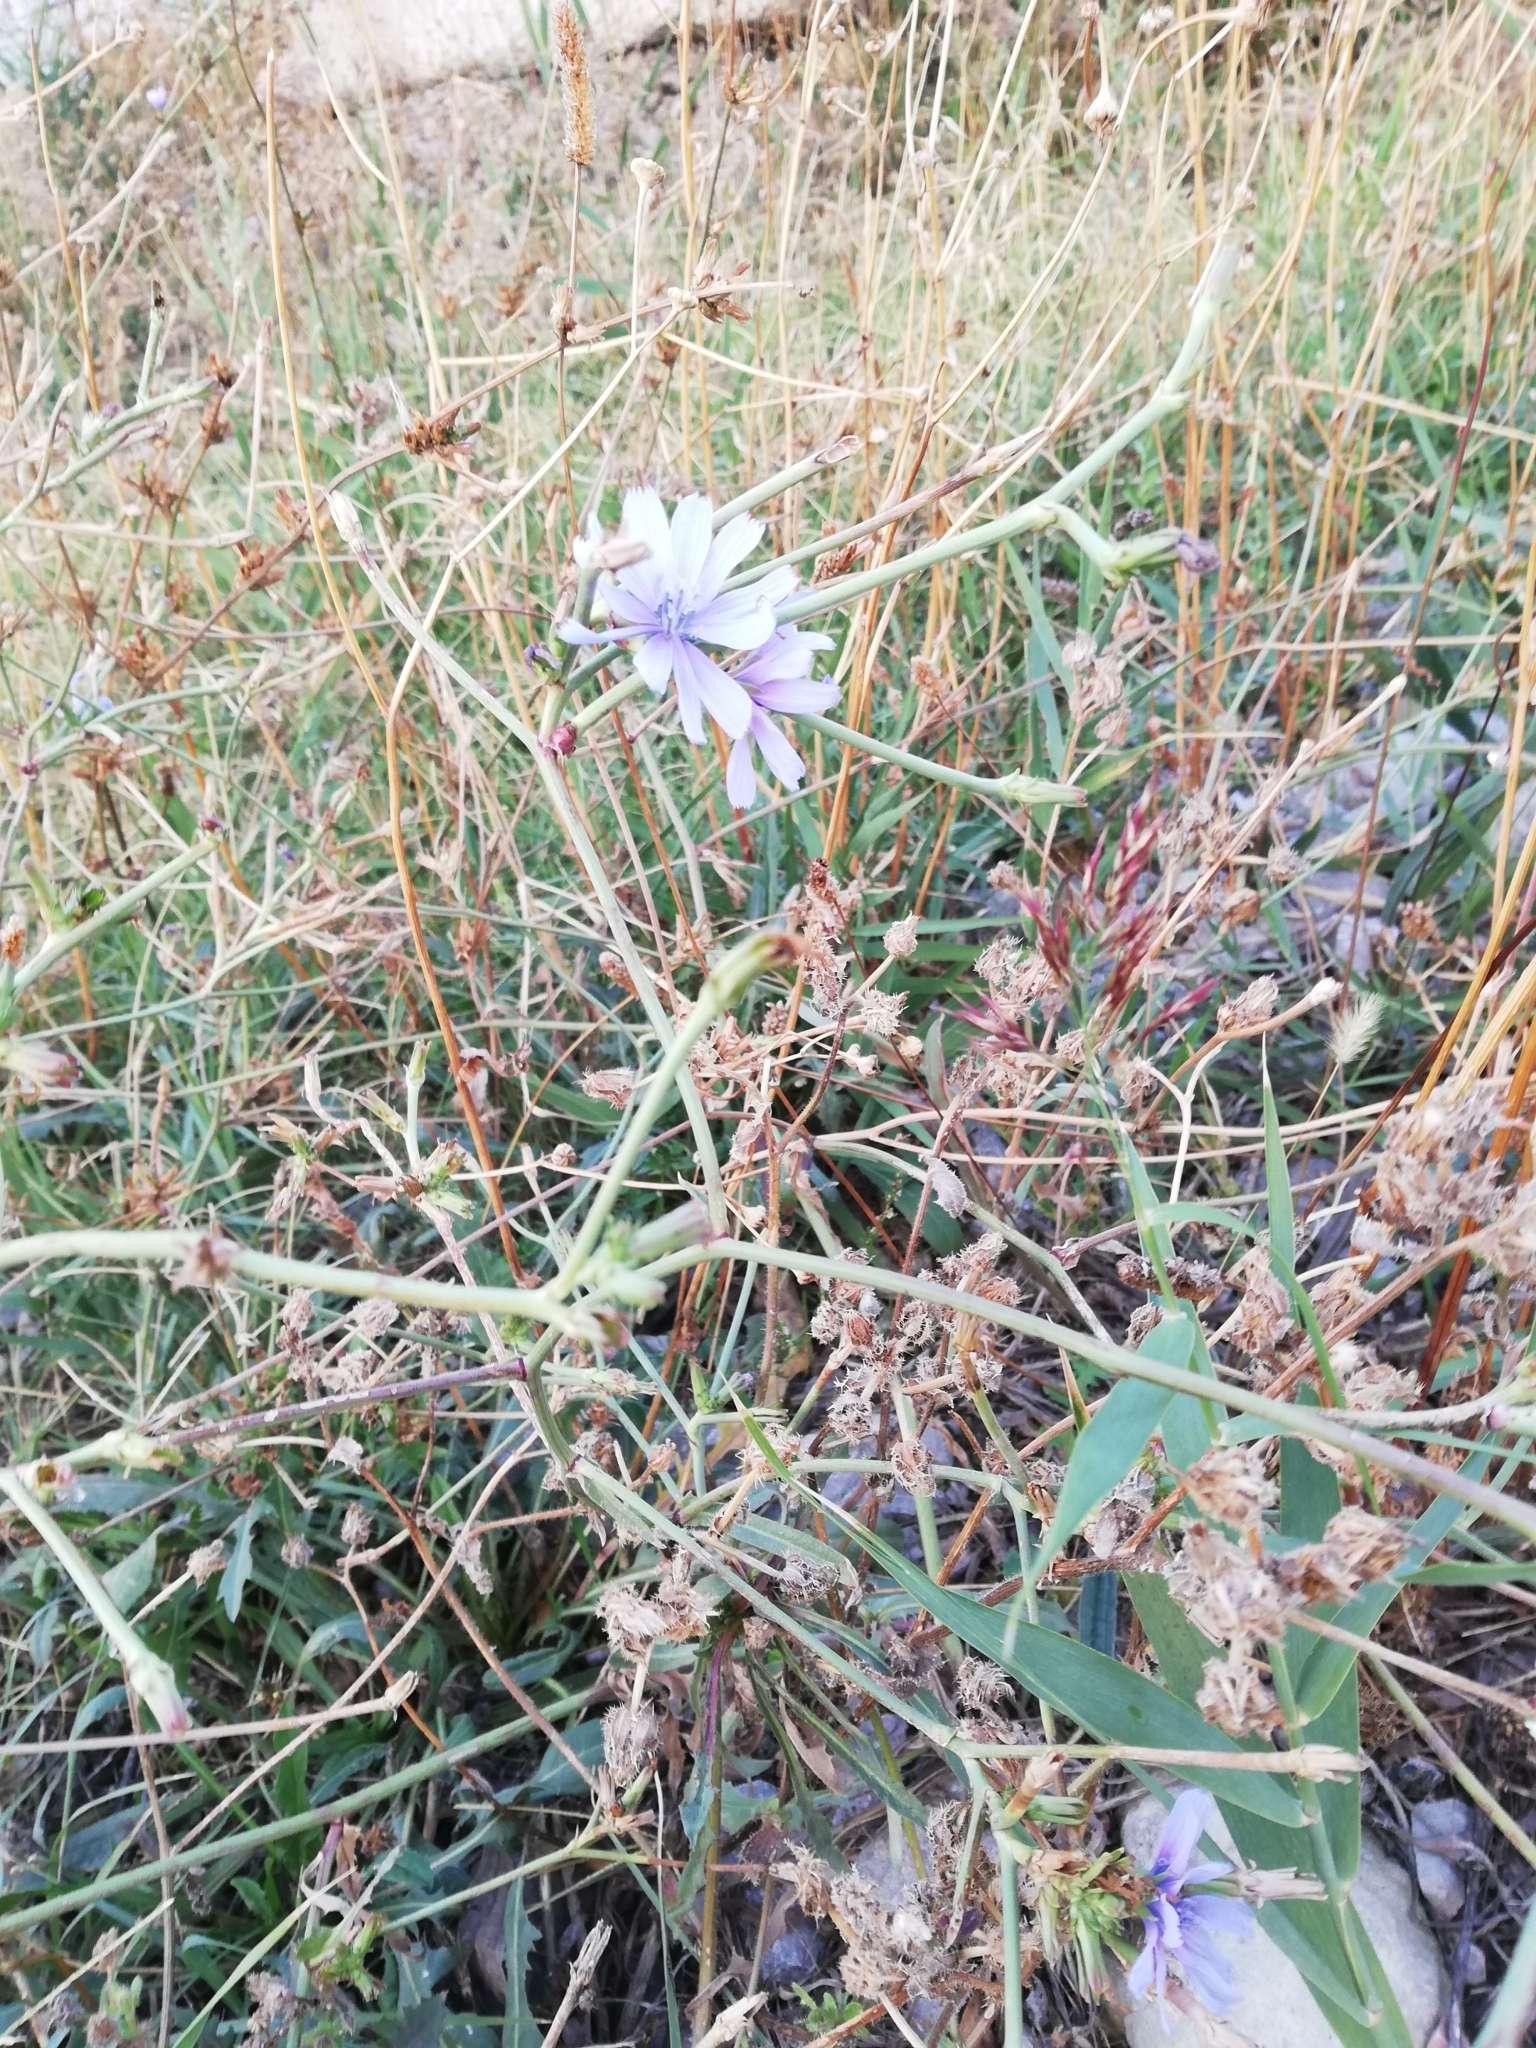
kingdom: Plantae
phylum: Tracheophyta
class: Magnoliopsida
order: Asterales
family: Asteraceae
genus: Cichorium
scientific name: Cichorium intybus
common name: Chicory
